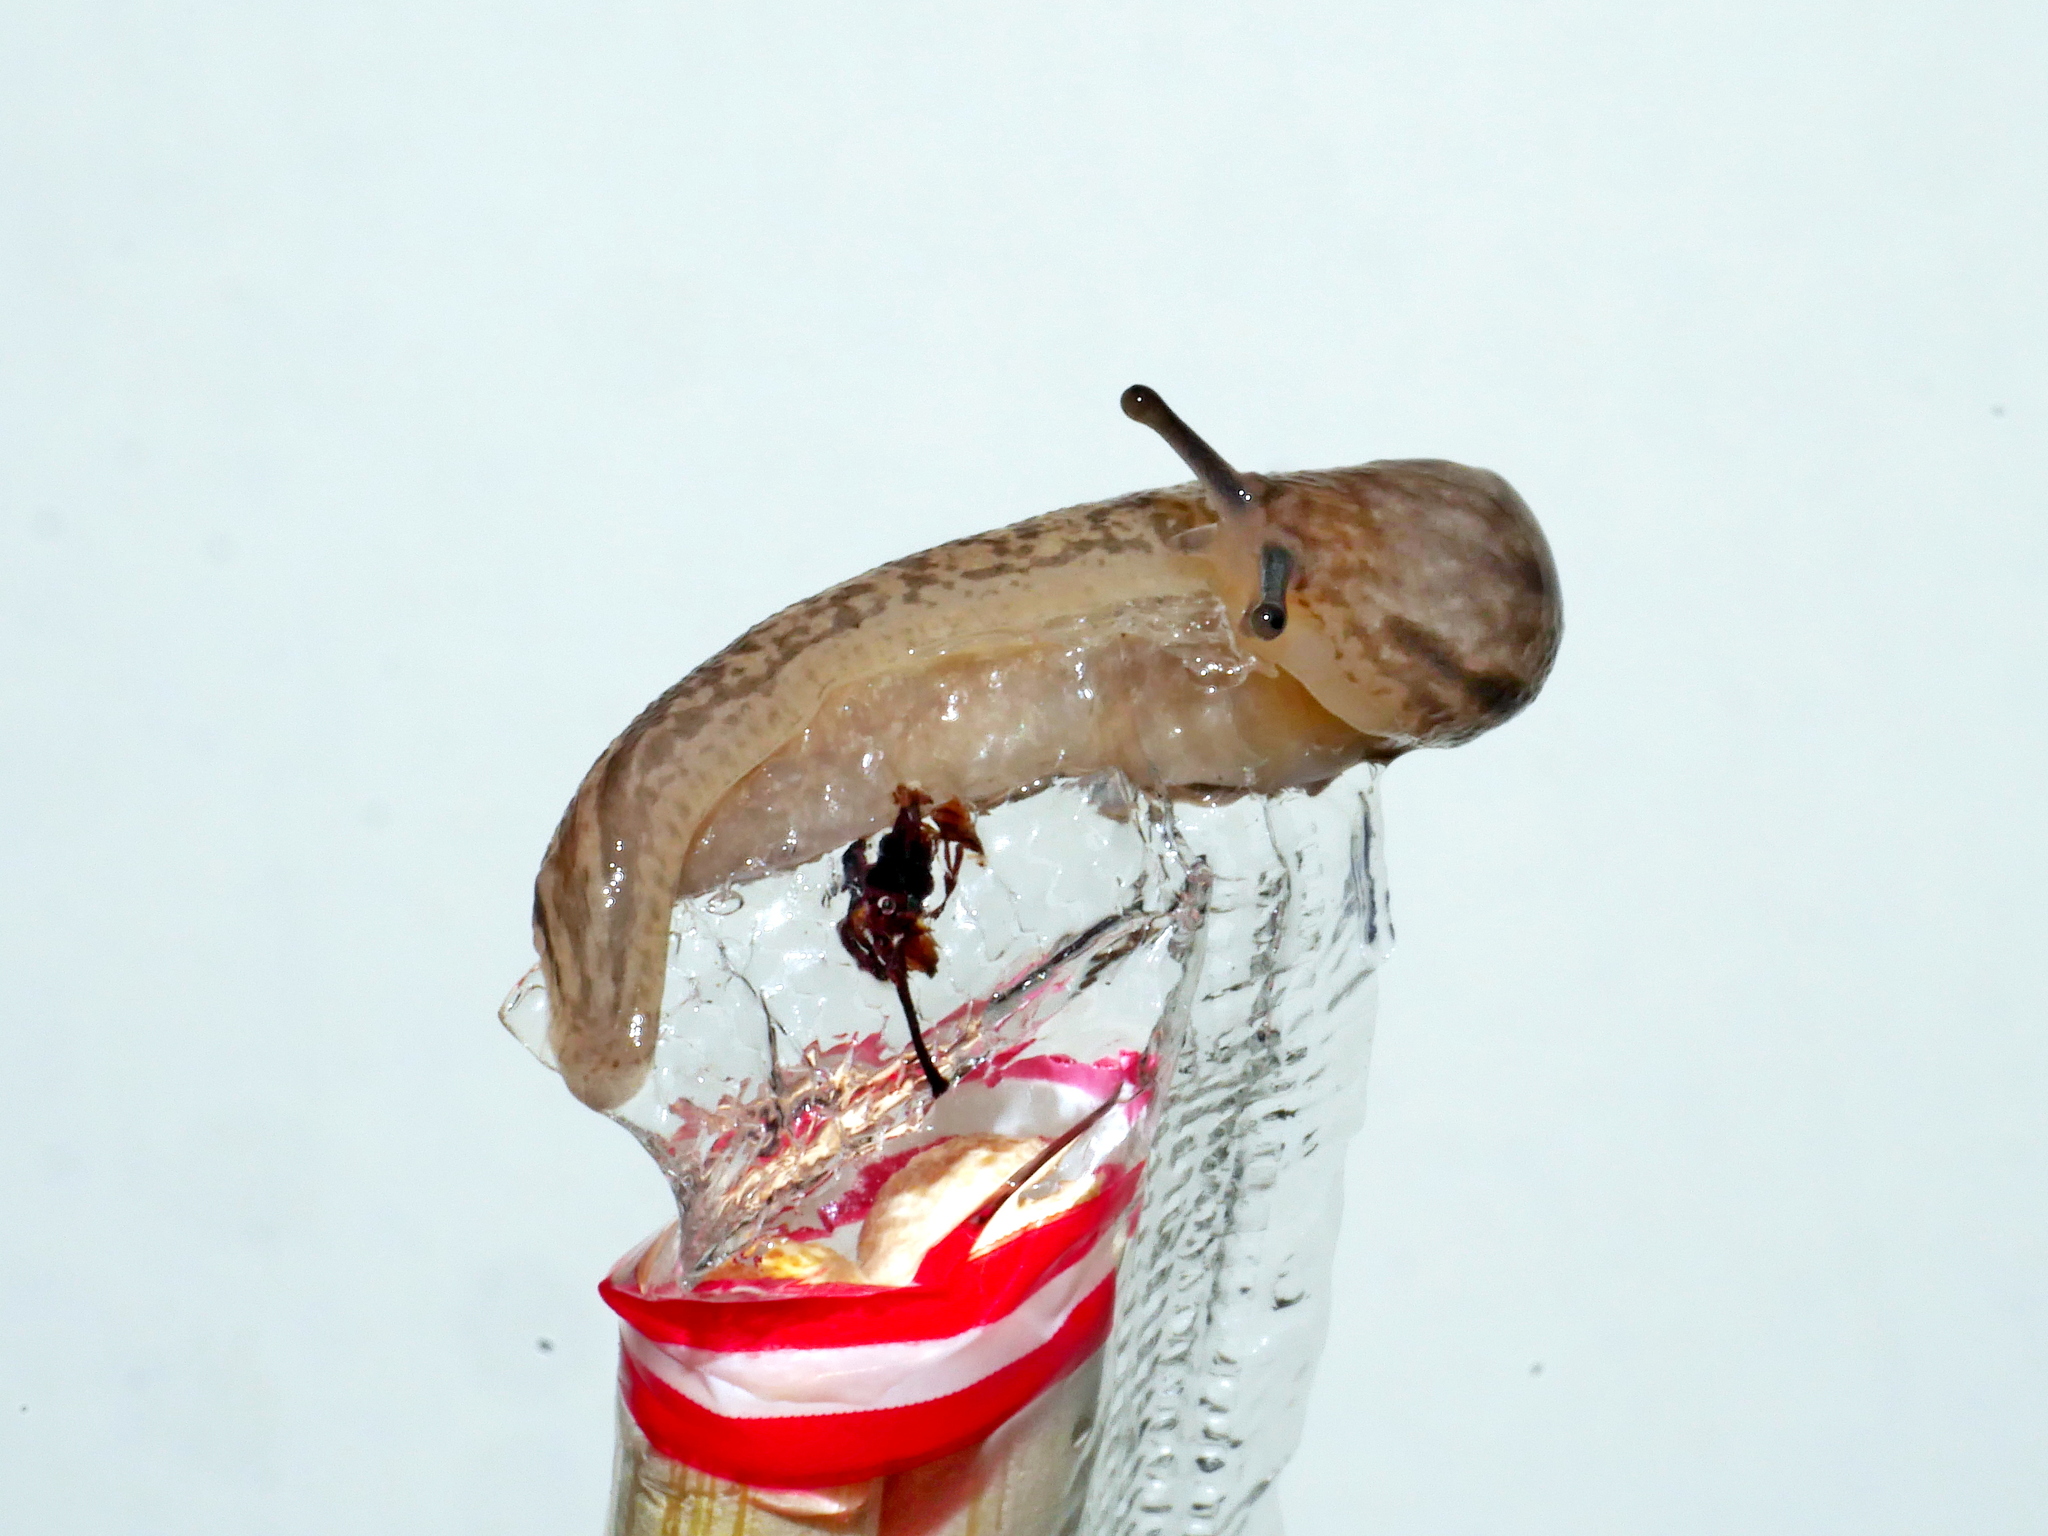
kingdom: Animalia
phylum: Mollusca
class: Gastropoda
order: Stylommatophora
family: Philomycidae
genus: Meghimatium
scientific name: Meghimatium bilineatum
